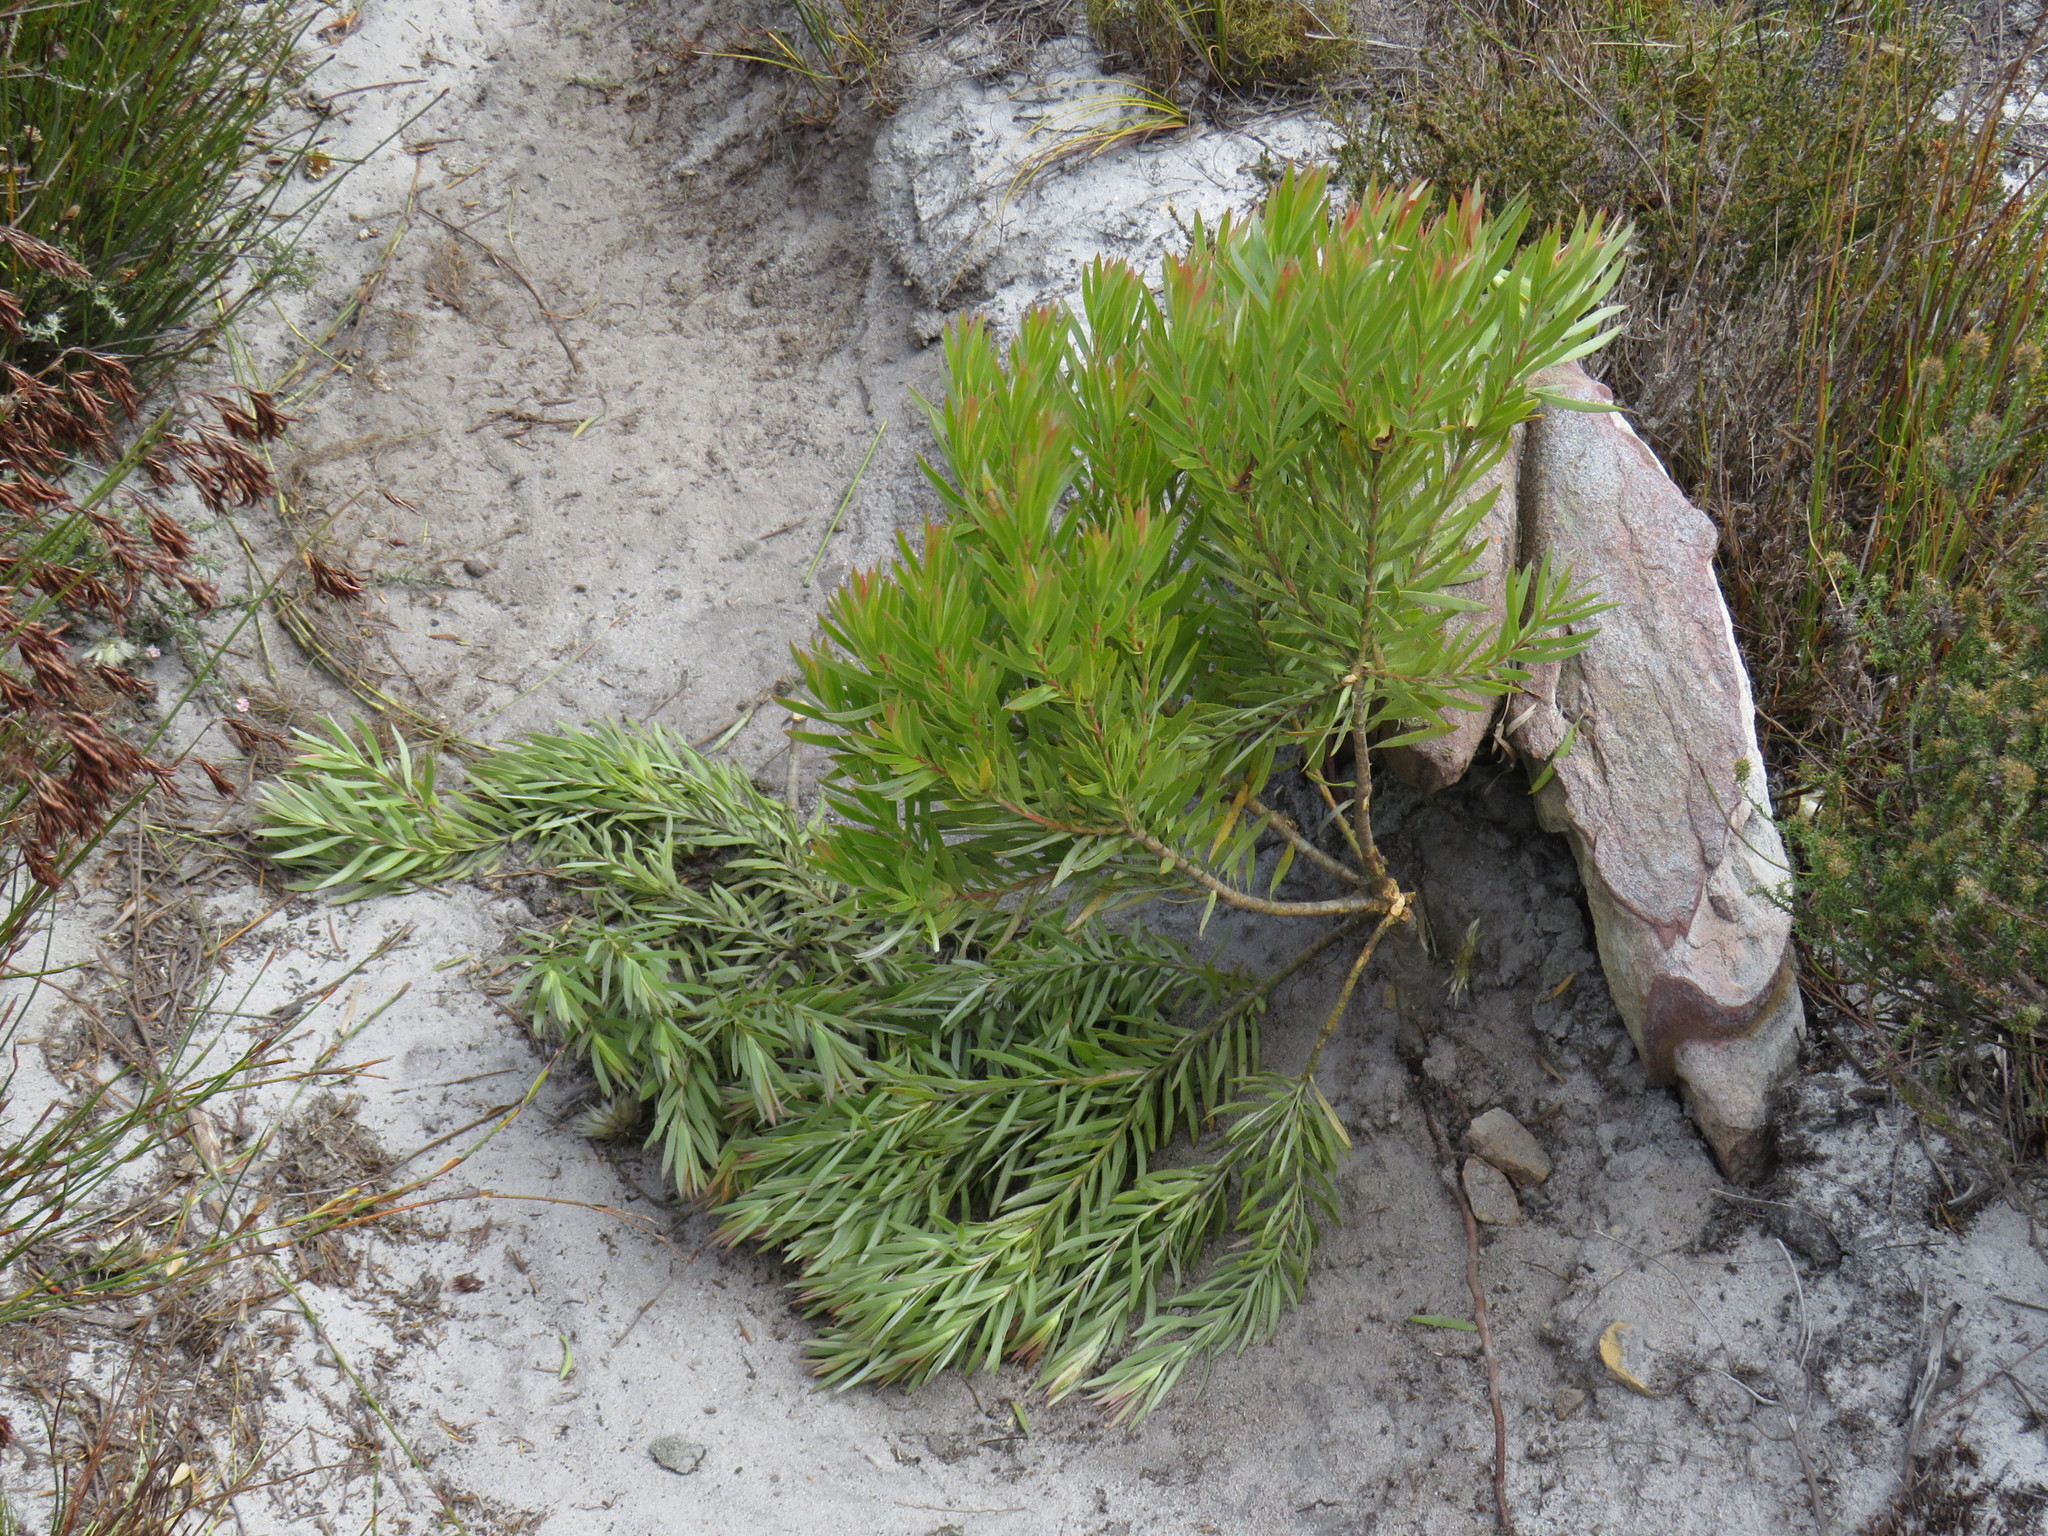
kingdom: Plantae
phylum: Tracheophyta
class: Magnoliopsida
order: Proteales
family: Proteaceae
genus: Leucadendron
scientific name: Leucadendron xanthoconus
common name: Sickle-leaf conebush
